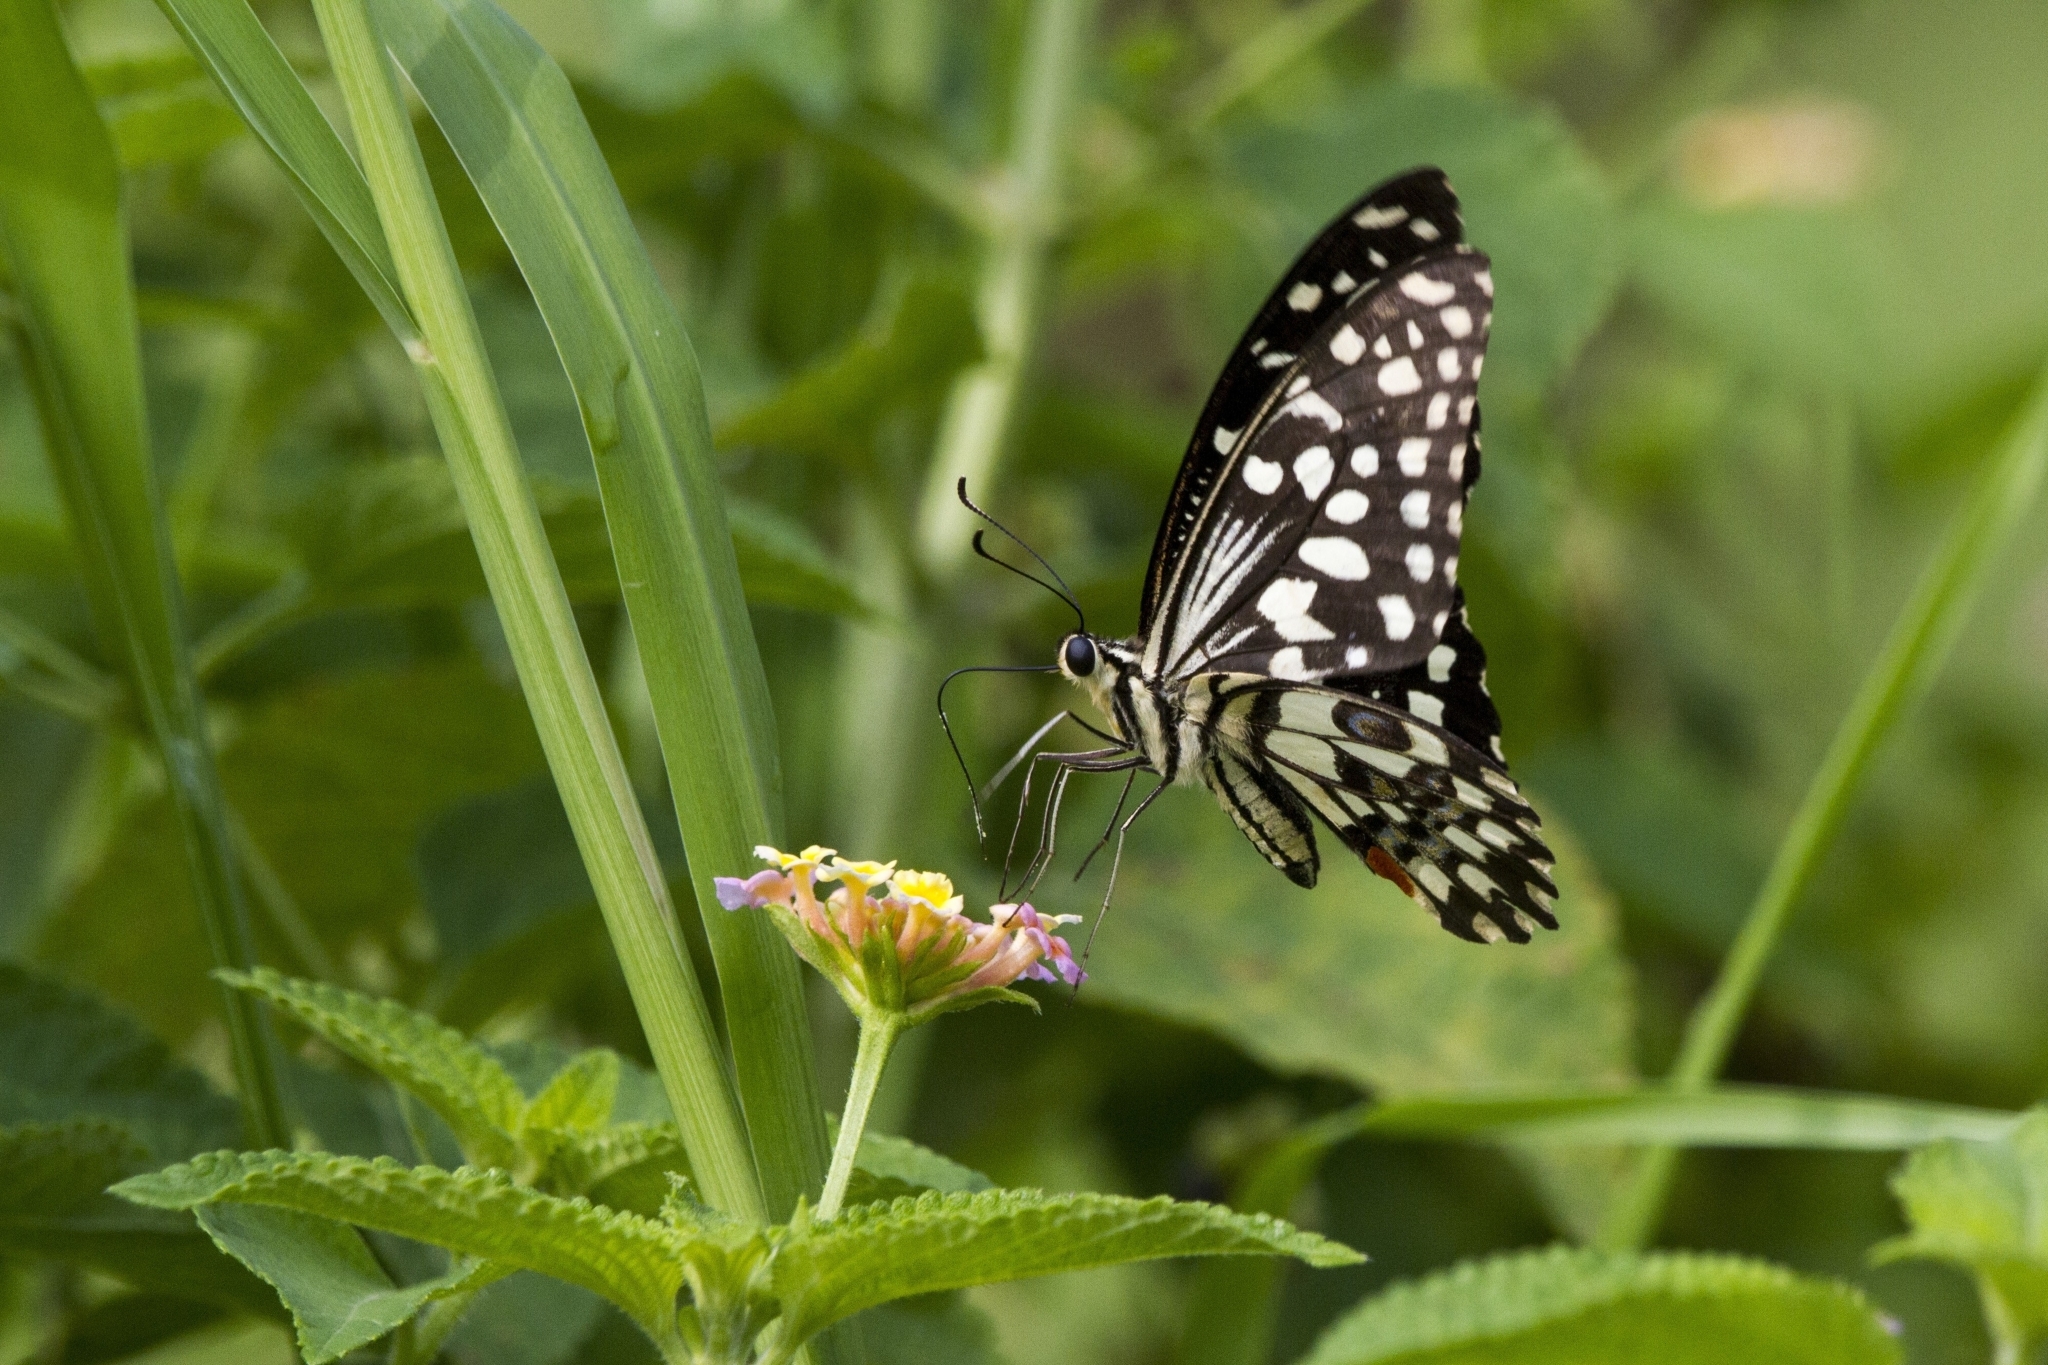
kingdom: Animalia
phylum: Arthropoda
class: Insecta
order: Lepidoptera
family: Papilionidae
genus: Papilio
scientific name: Papilio demoleus
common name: Lime butterfly
